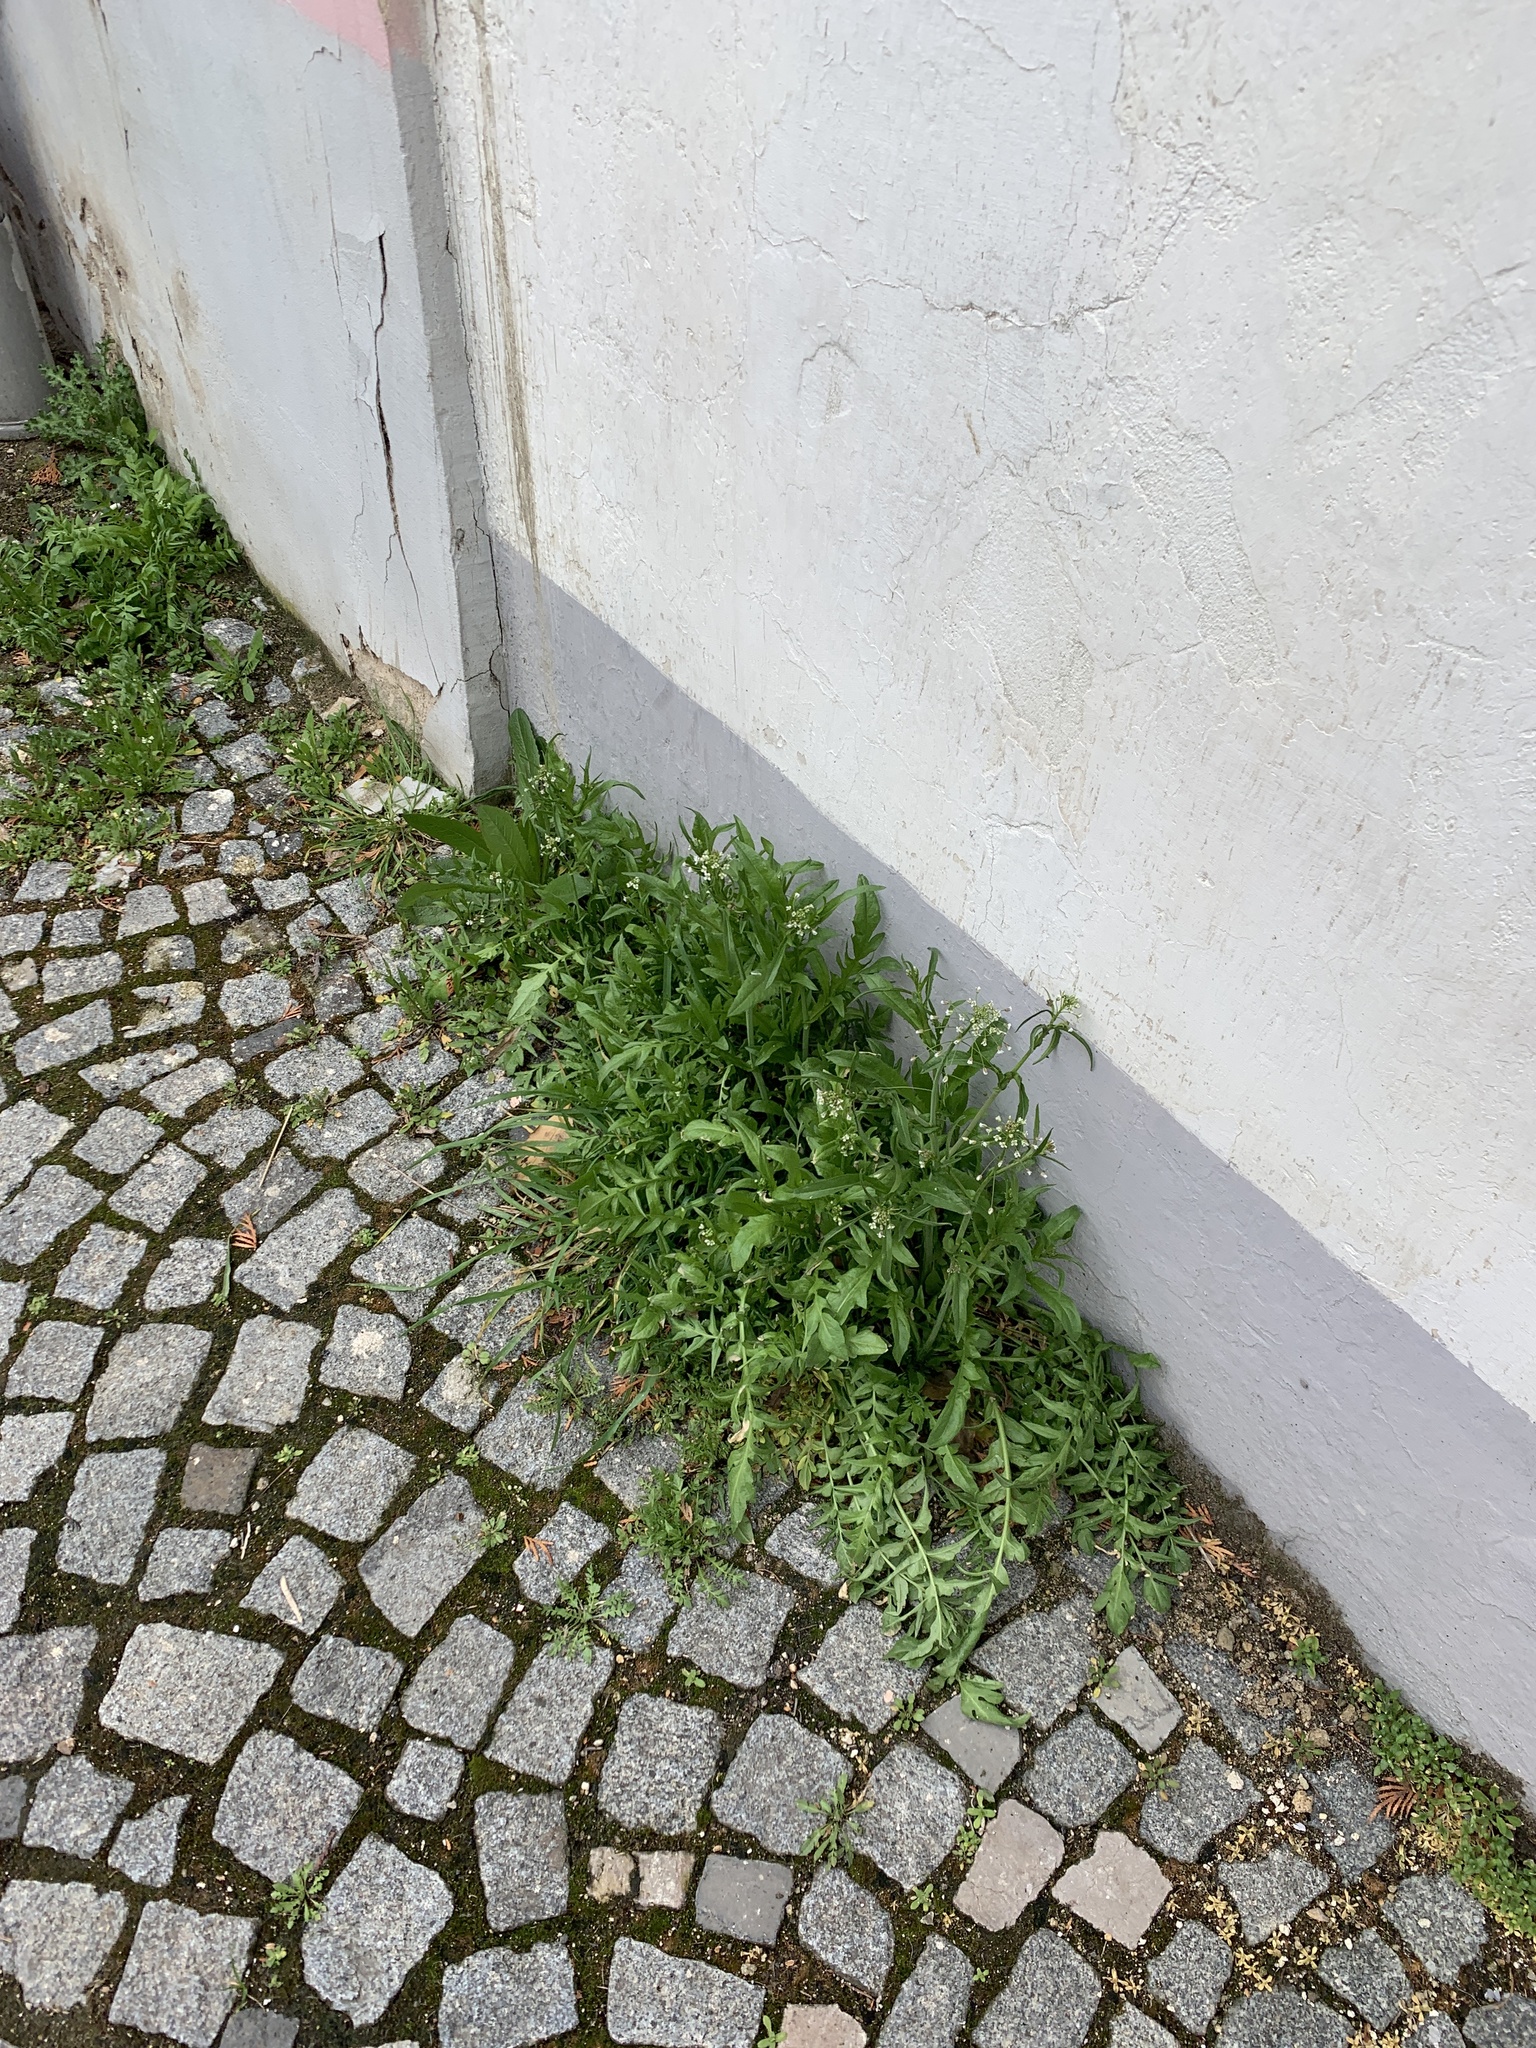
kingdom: Plantae
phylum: Tracheophyta
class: Magnoliopsida
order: Brassicales
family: Brassicaceae
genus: Capsella
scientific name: Capsella bursa-pastoris
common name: Shepherd's purse
